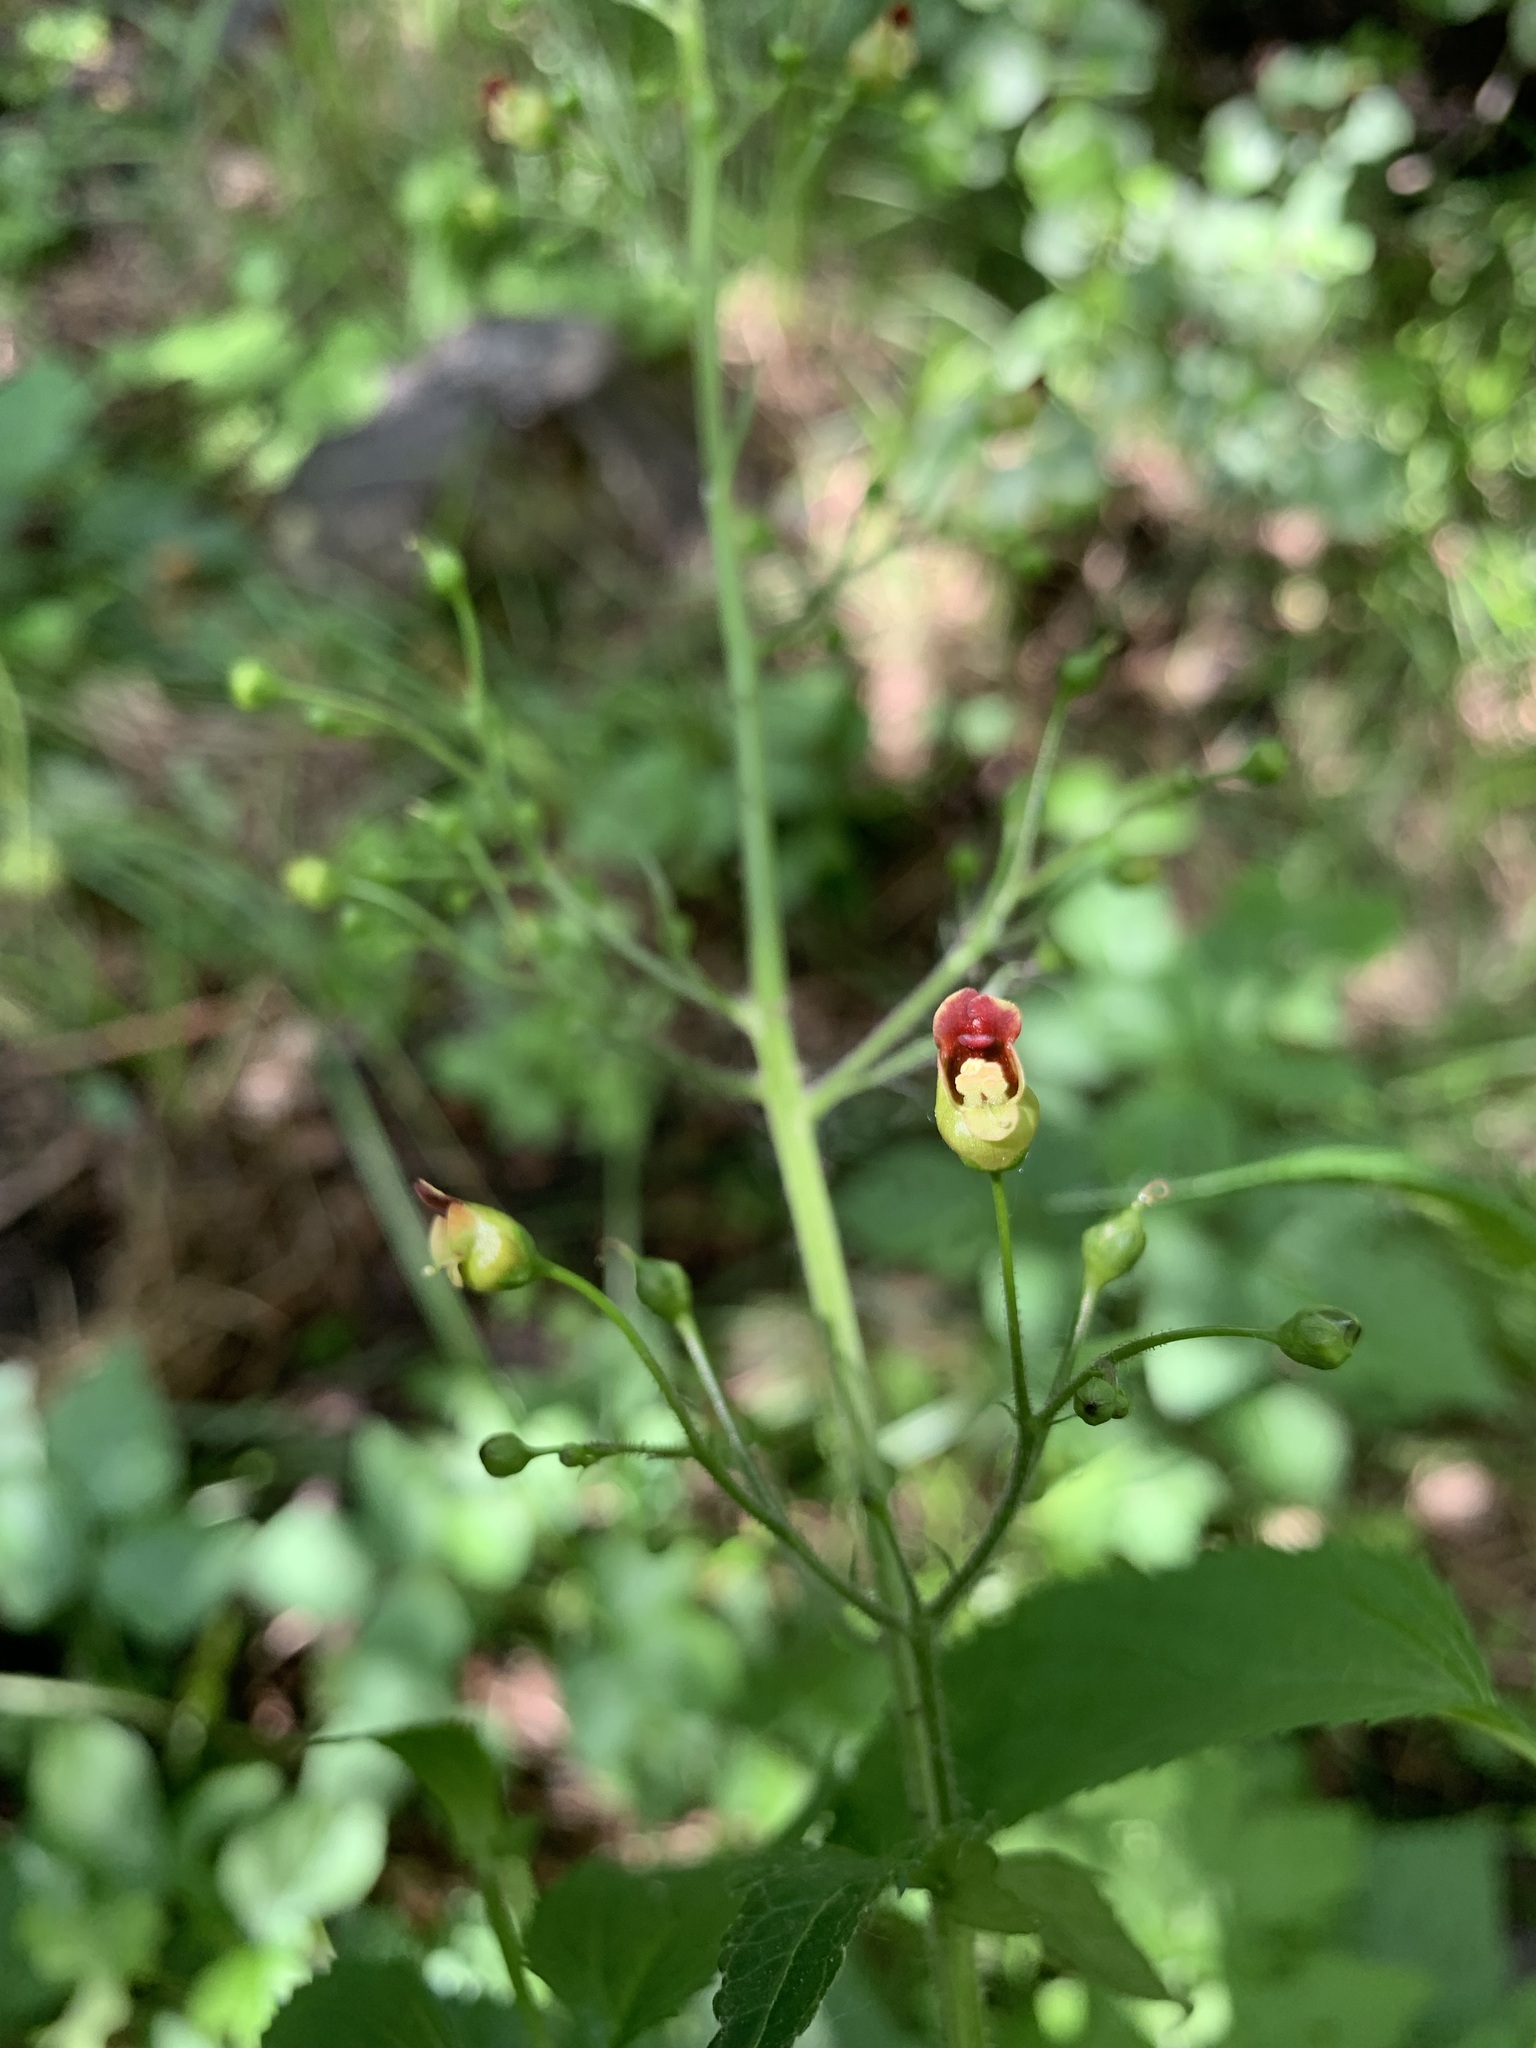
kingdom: Plantae
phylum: Tracheophyta
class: Magnoliopsida
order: Lamiales
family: Scrophulariaceae
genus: Scrophularia
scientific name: Scrophularia nodosa
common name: Common figwort
